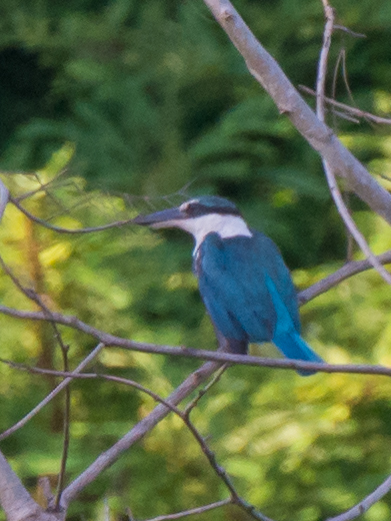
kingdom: Animalia
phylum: Chordata
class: Aves
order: Coraciiformes
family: Alcedinidae
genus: Todiramphus
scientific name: Todiramphus chloris
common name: Collared kingfisher
